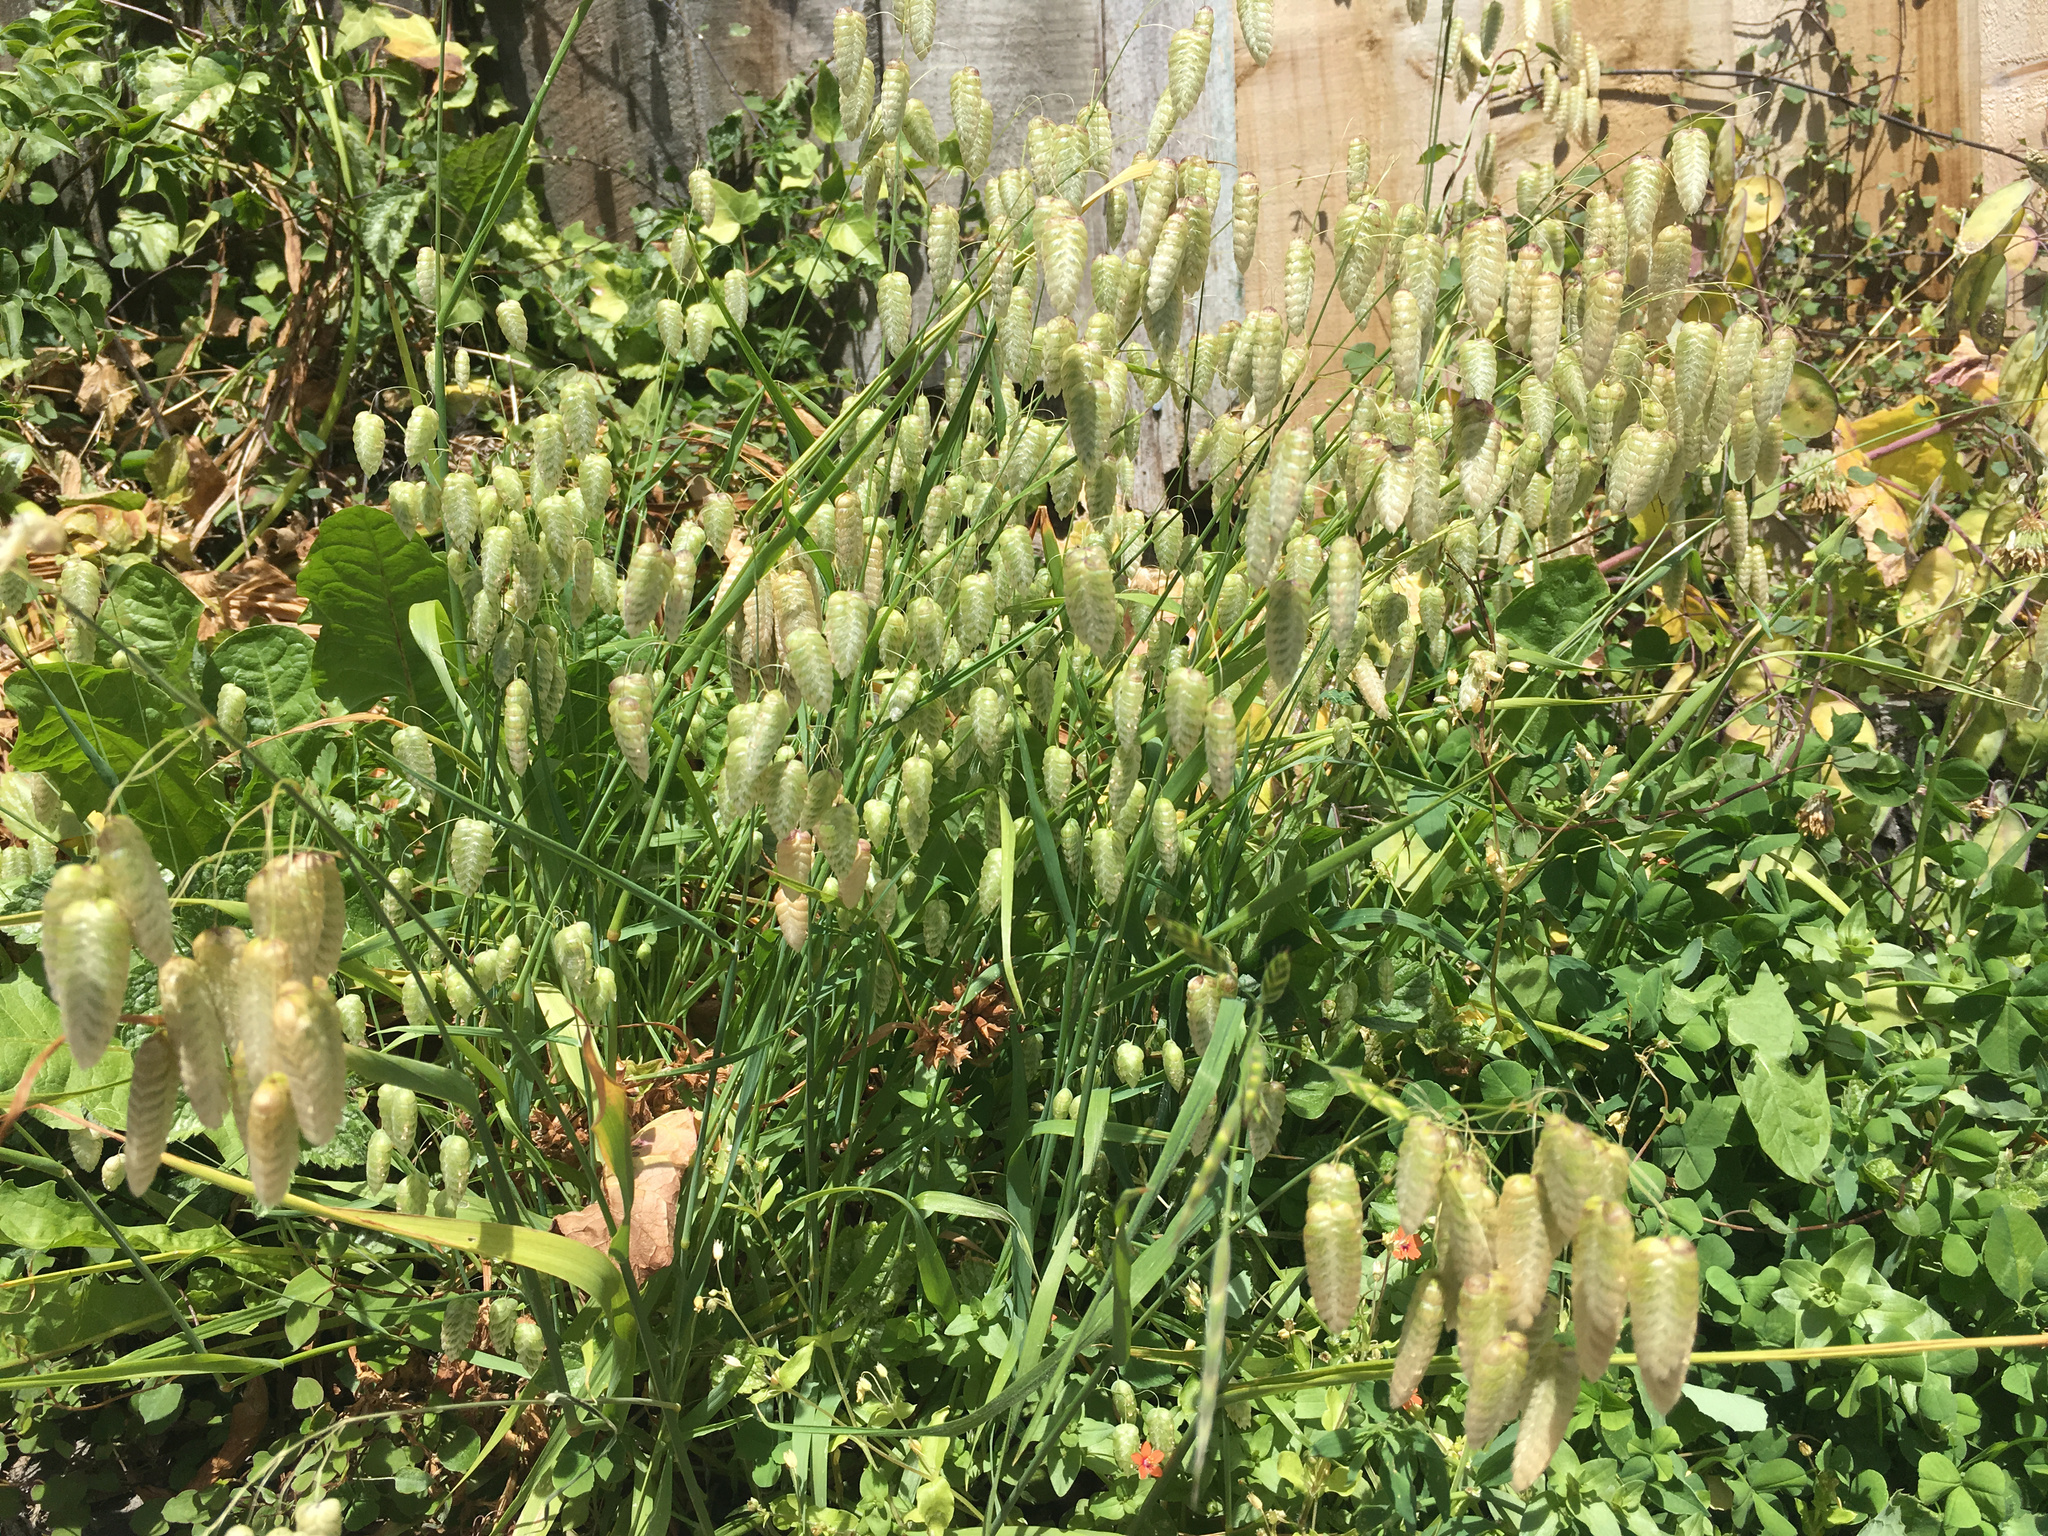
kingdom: Plantae
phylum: Tracheophyta
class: Liliopsida
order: Poales
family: Poaceae
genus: Briza
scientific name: Briza maxima
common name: Big quakinggrass
